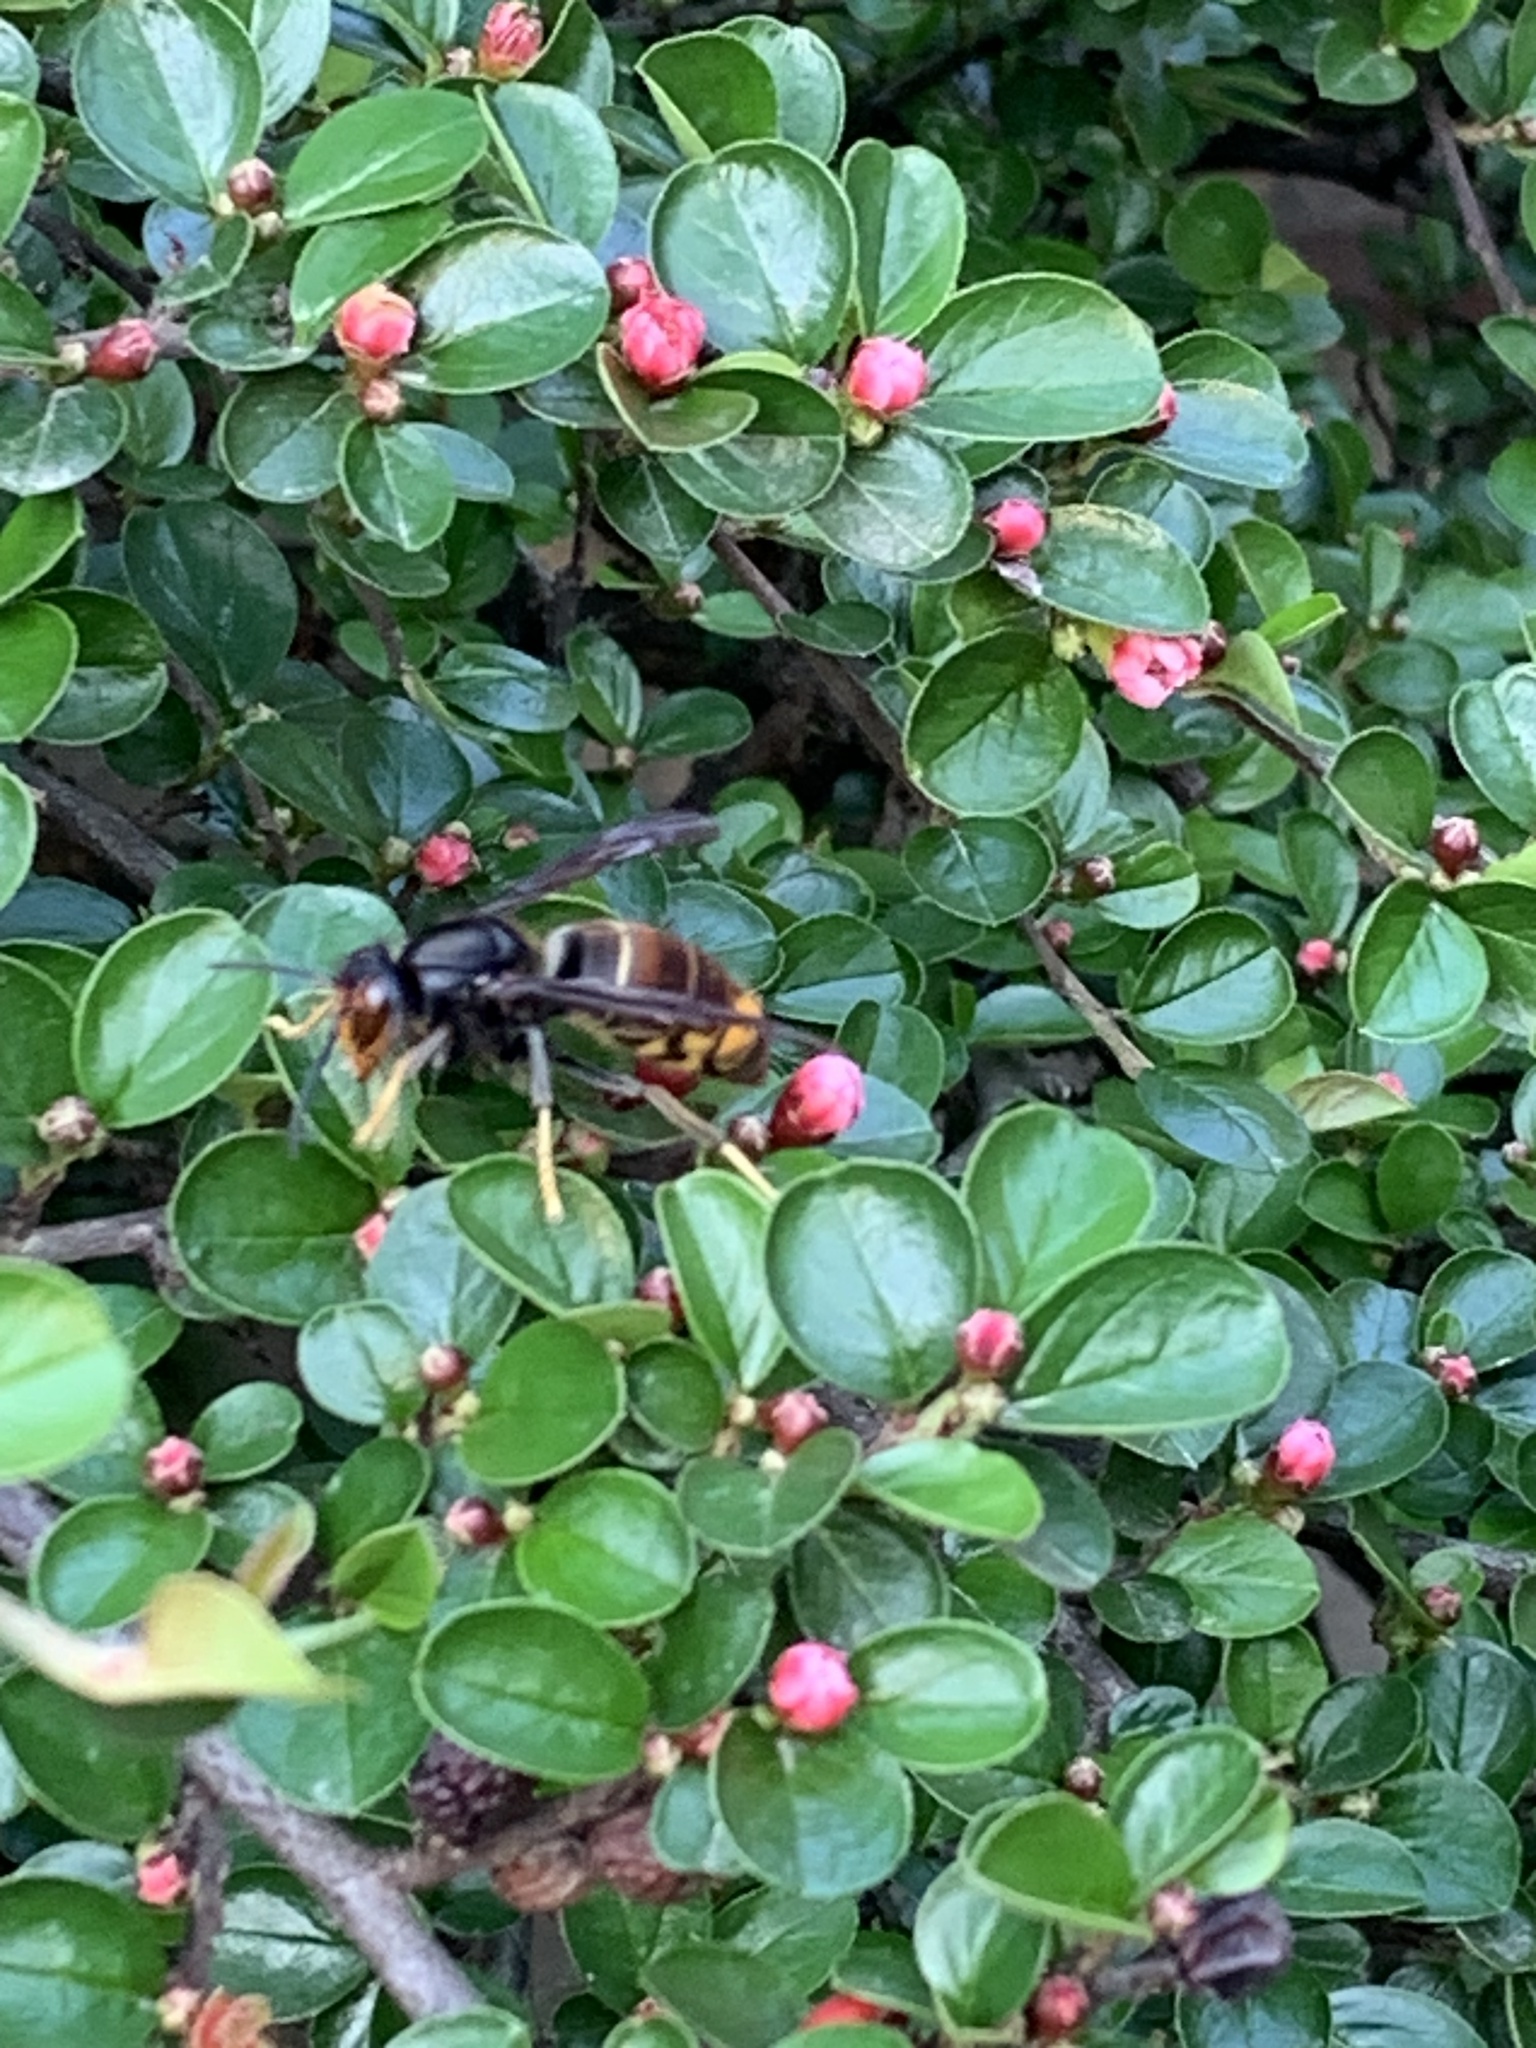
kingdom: Animalia
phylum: Arthropoda
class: Insecta
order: Hymenoptera
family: Vespidae
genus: Vespa
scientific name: Vespa velutina
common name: Asian hornet
